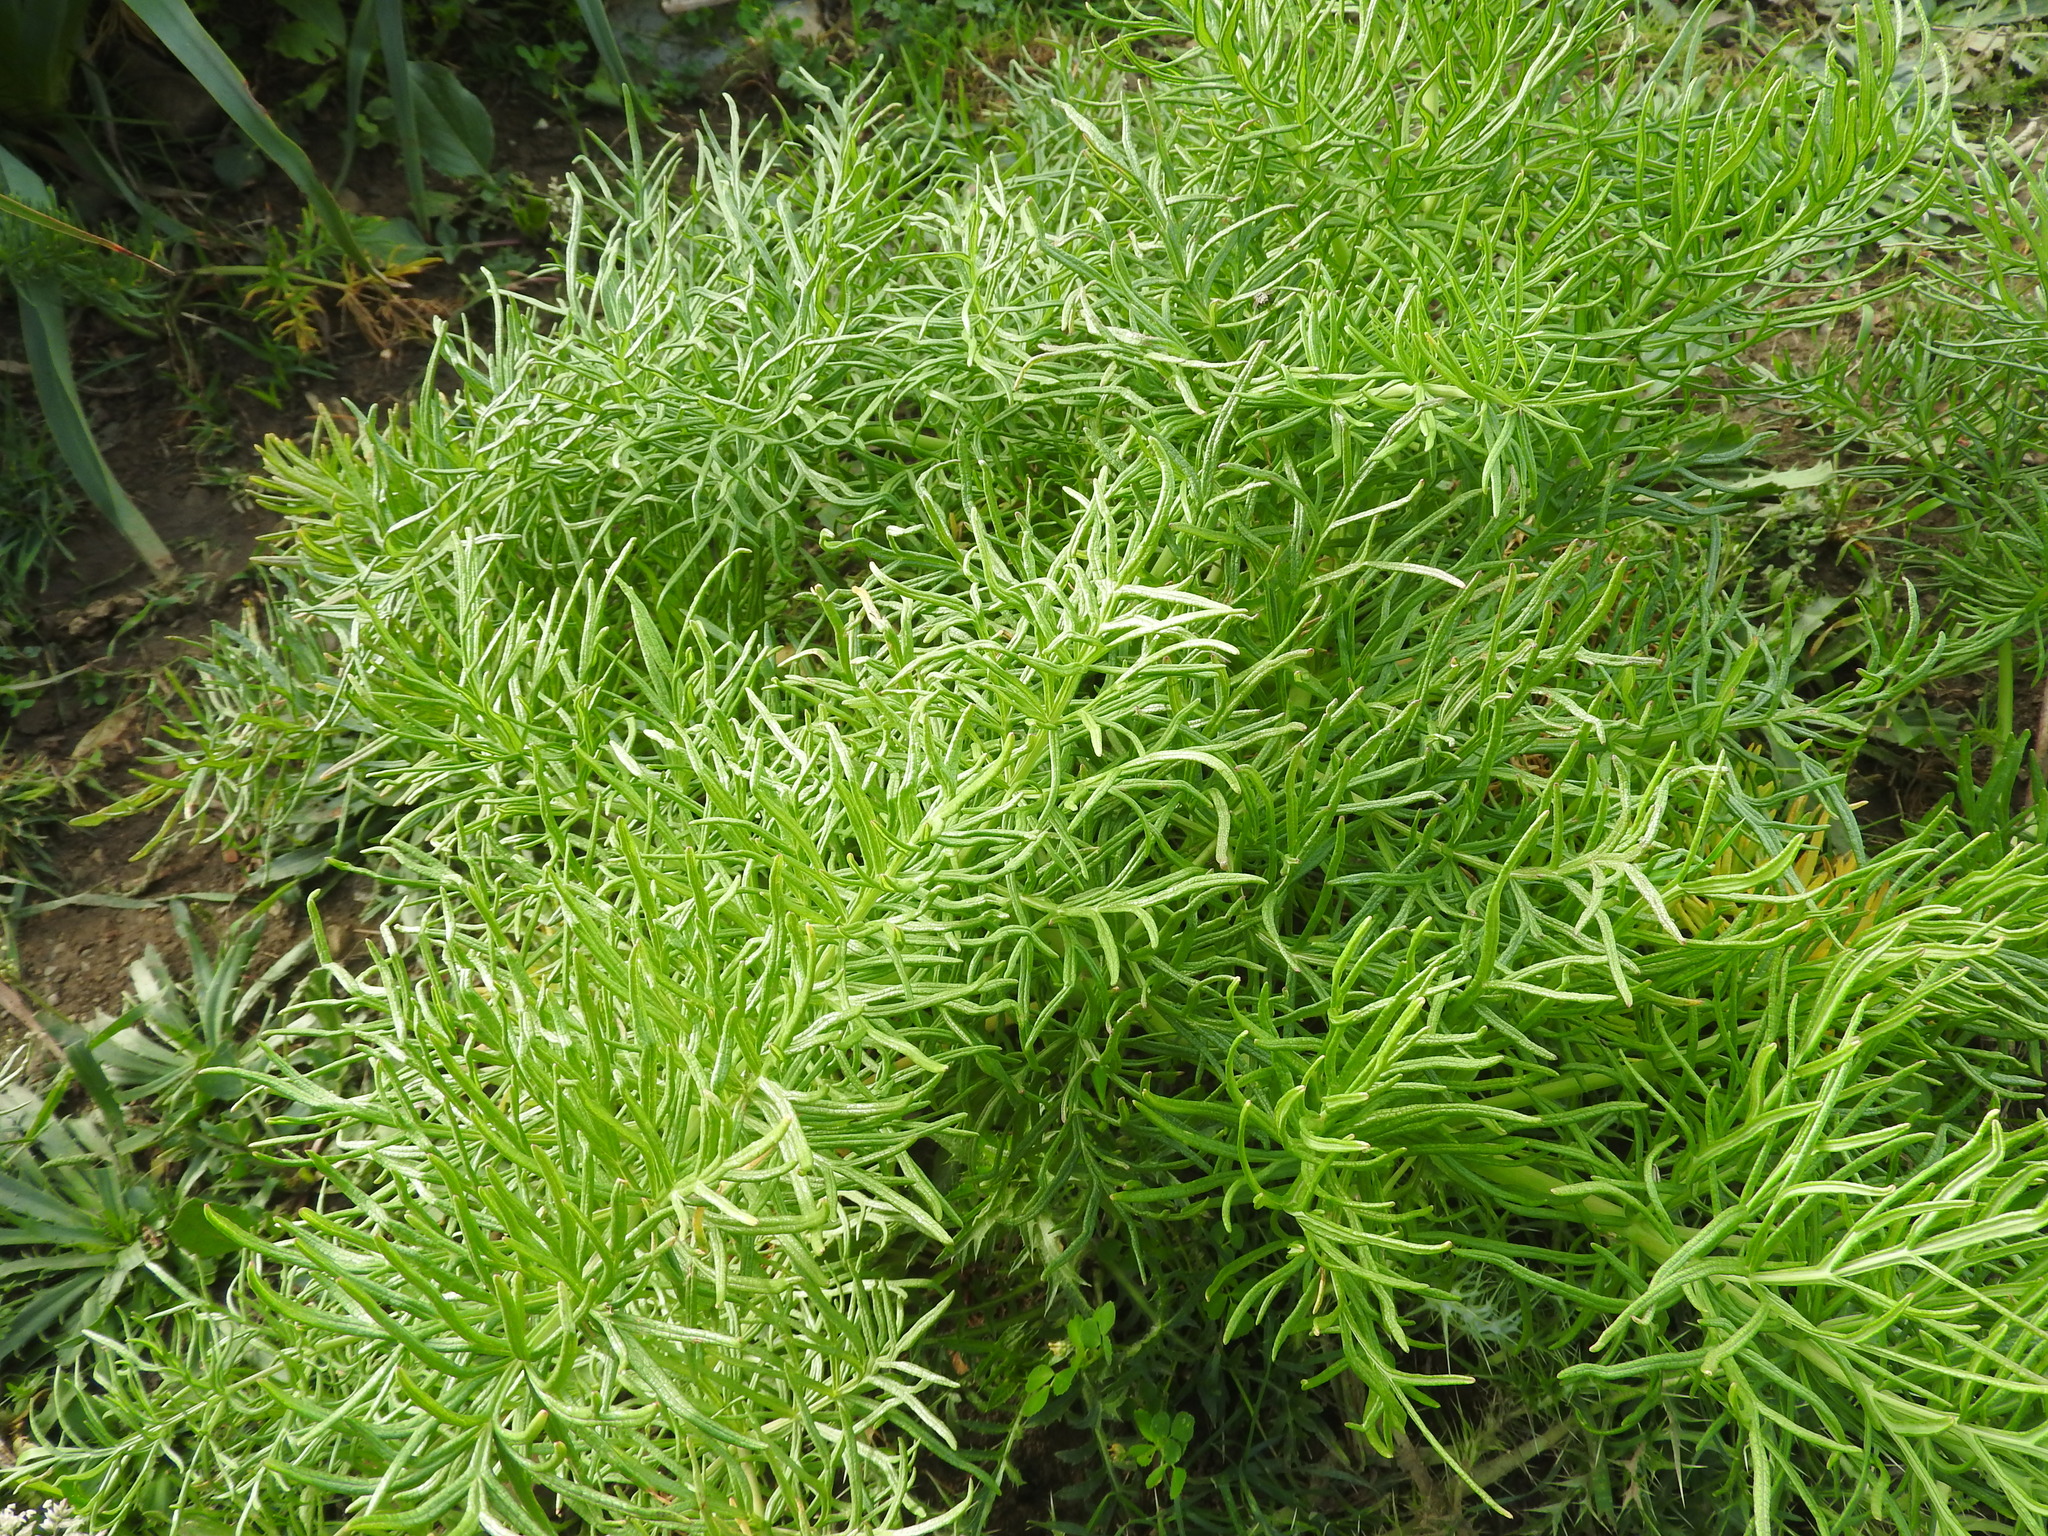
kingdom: Plantae
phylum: Tracheophyta
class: Magnoliopsida
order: Apiales
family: Apiaceae
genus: Thapsia
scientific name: Thapsia garganica
